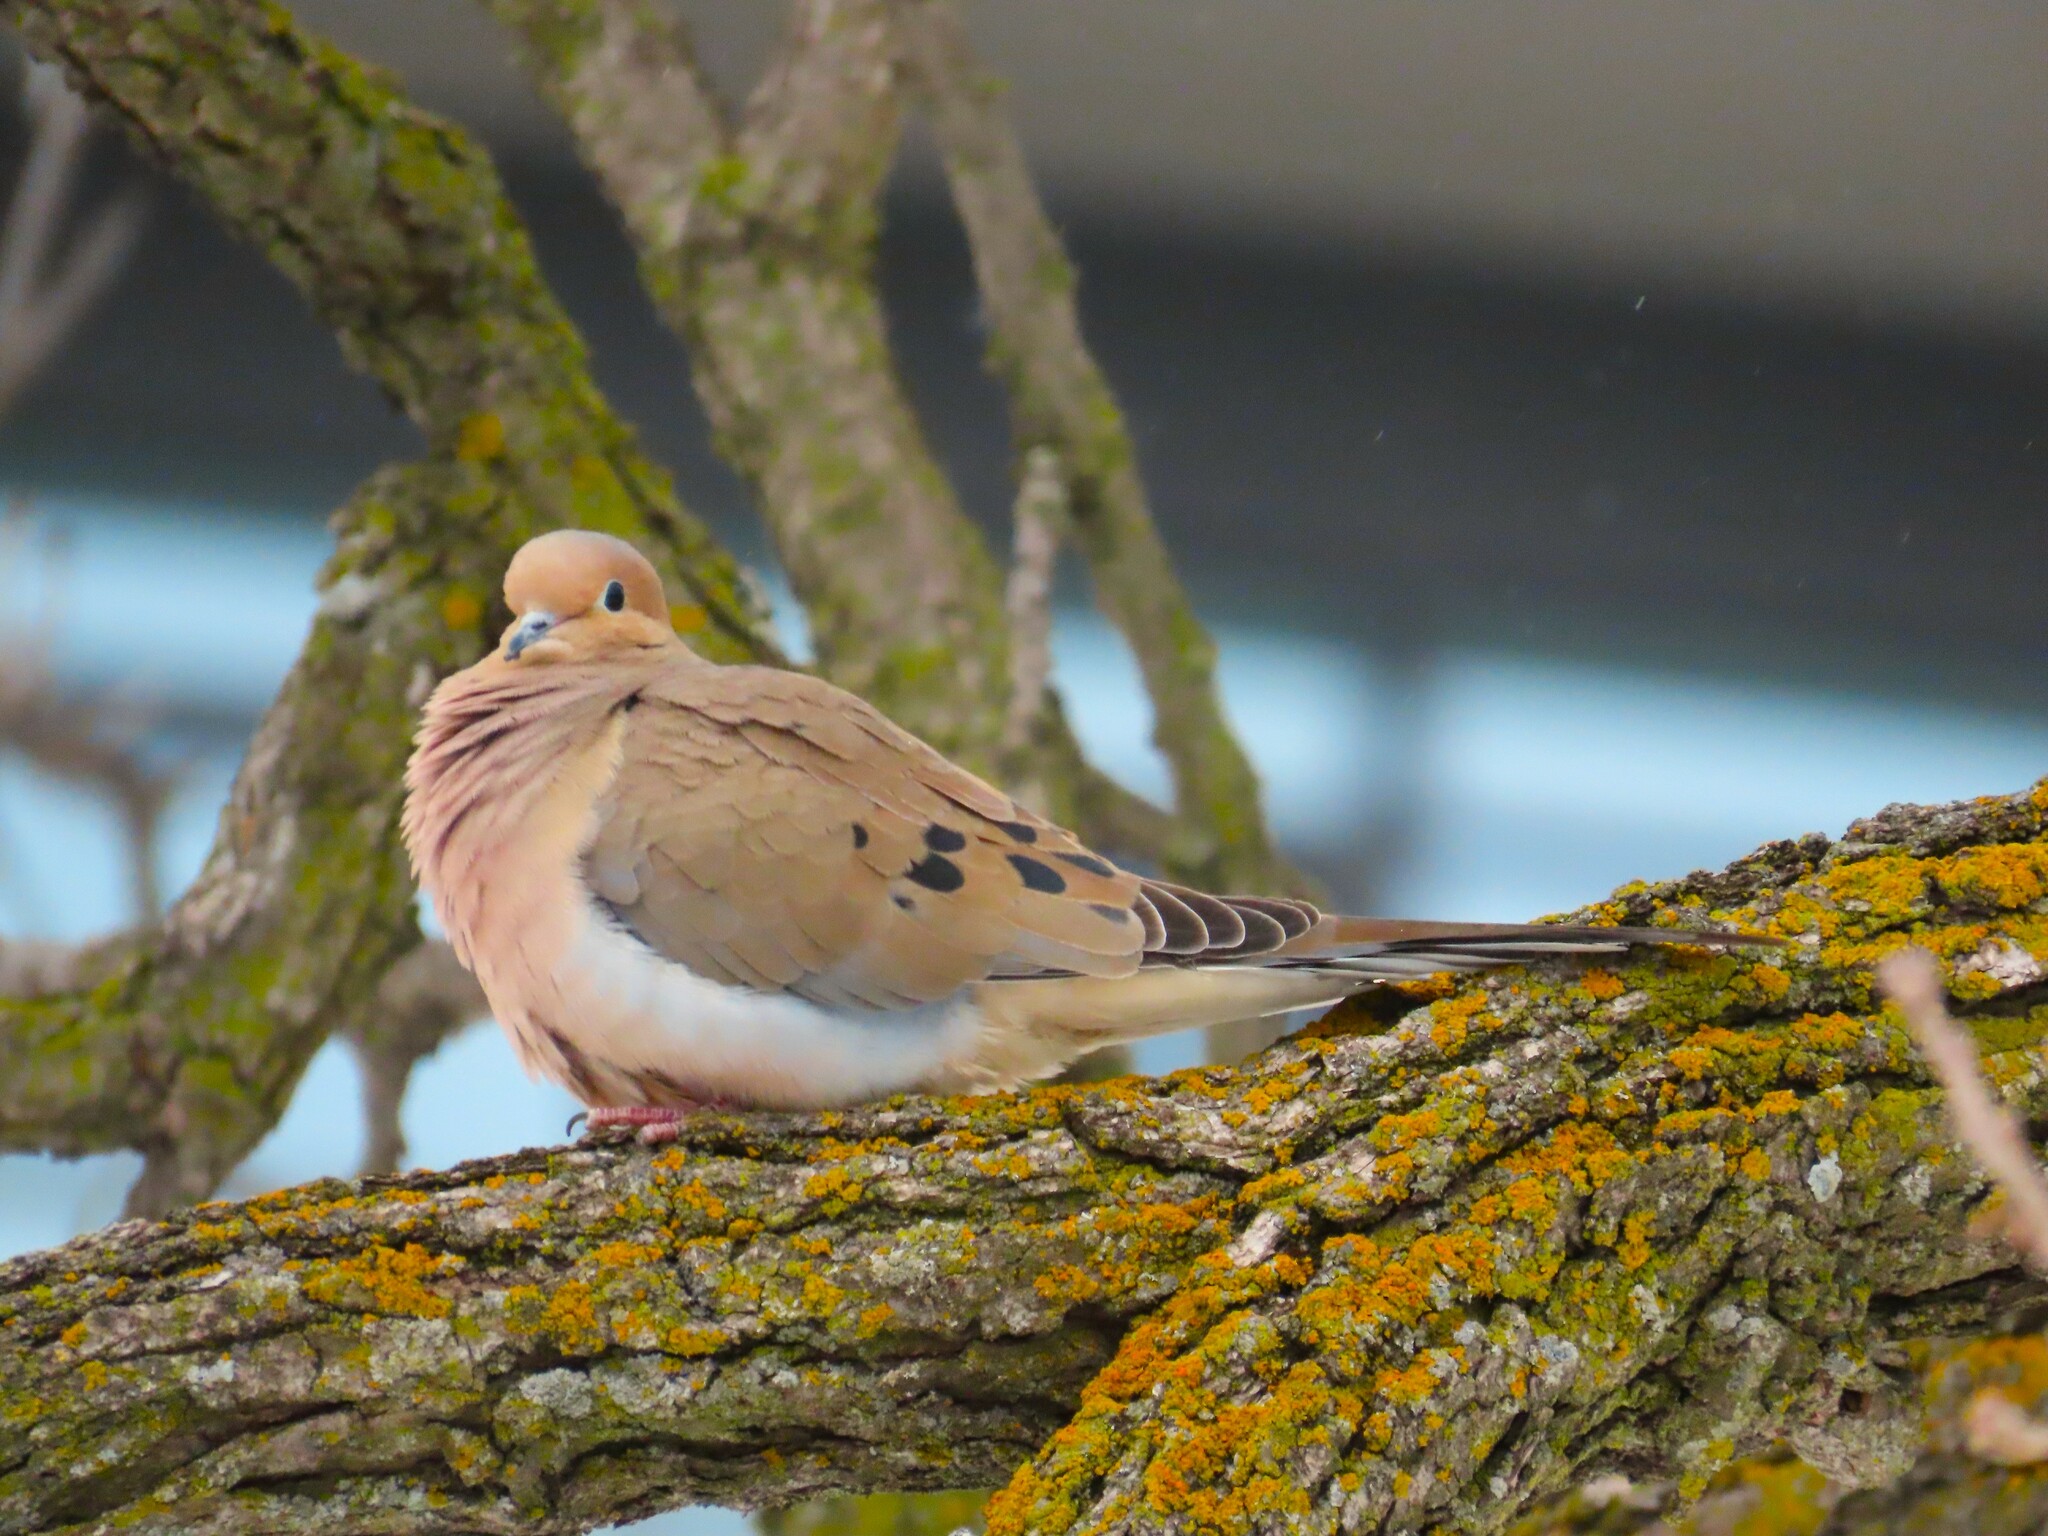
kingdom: Animalia
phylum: Chordata
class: Aves
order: Columbiformes
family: Columbidae
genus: Zenaida
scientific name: Zenaida macroura
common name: Mourning dove
